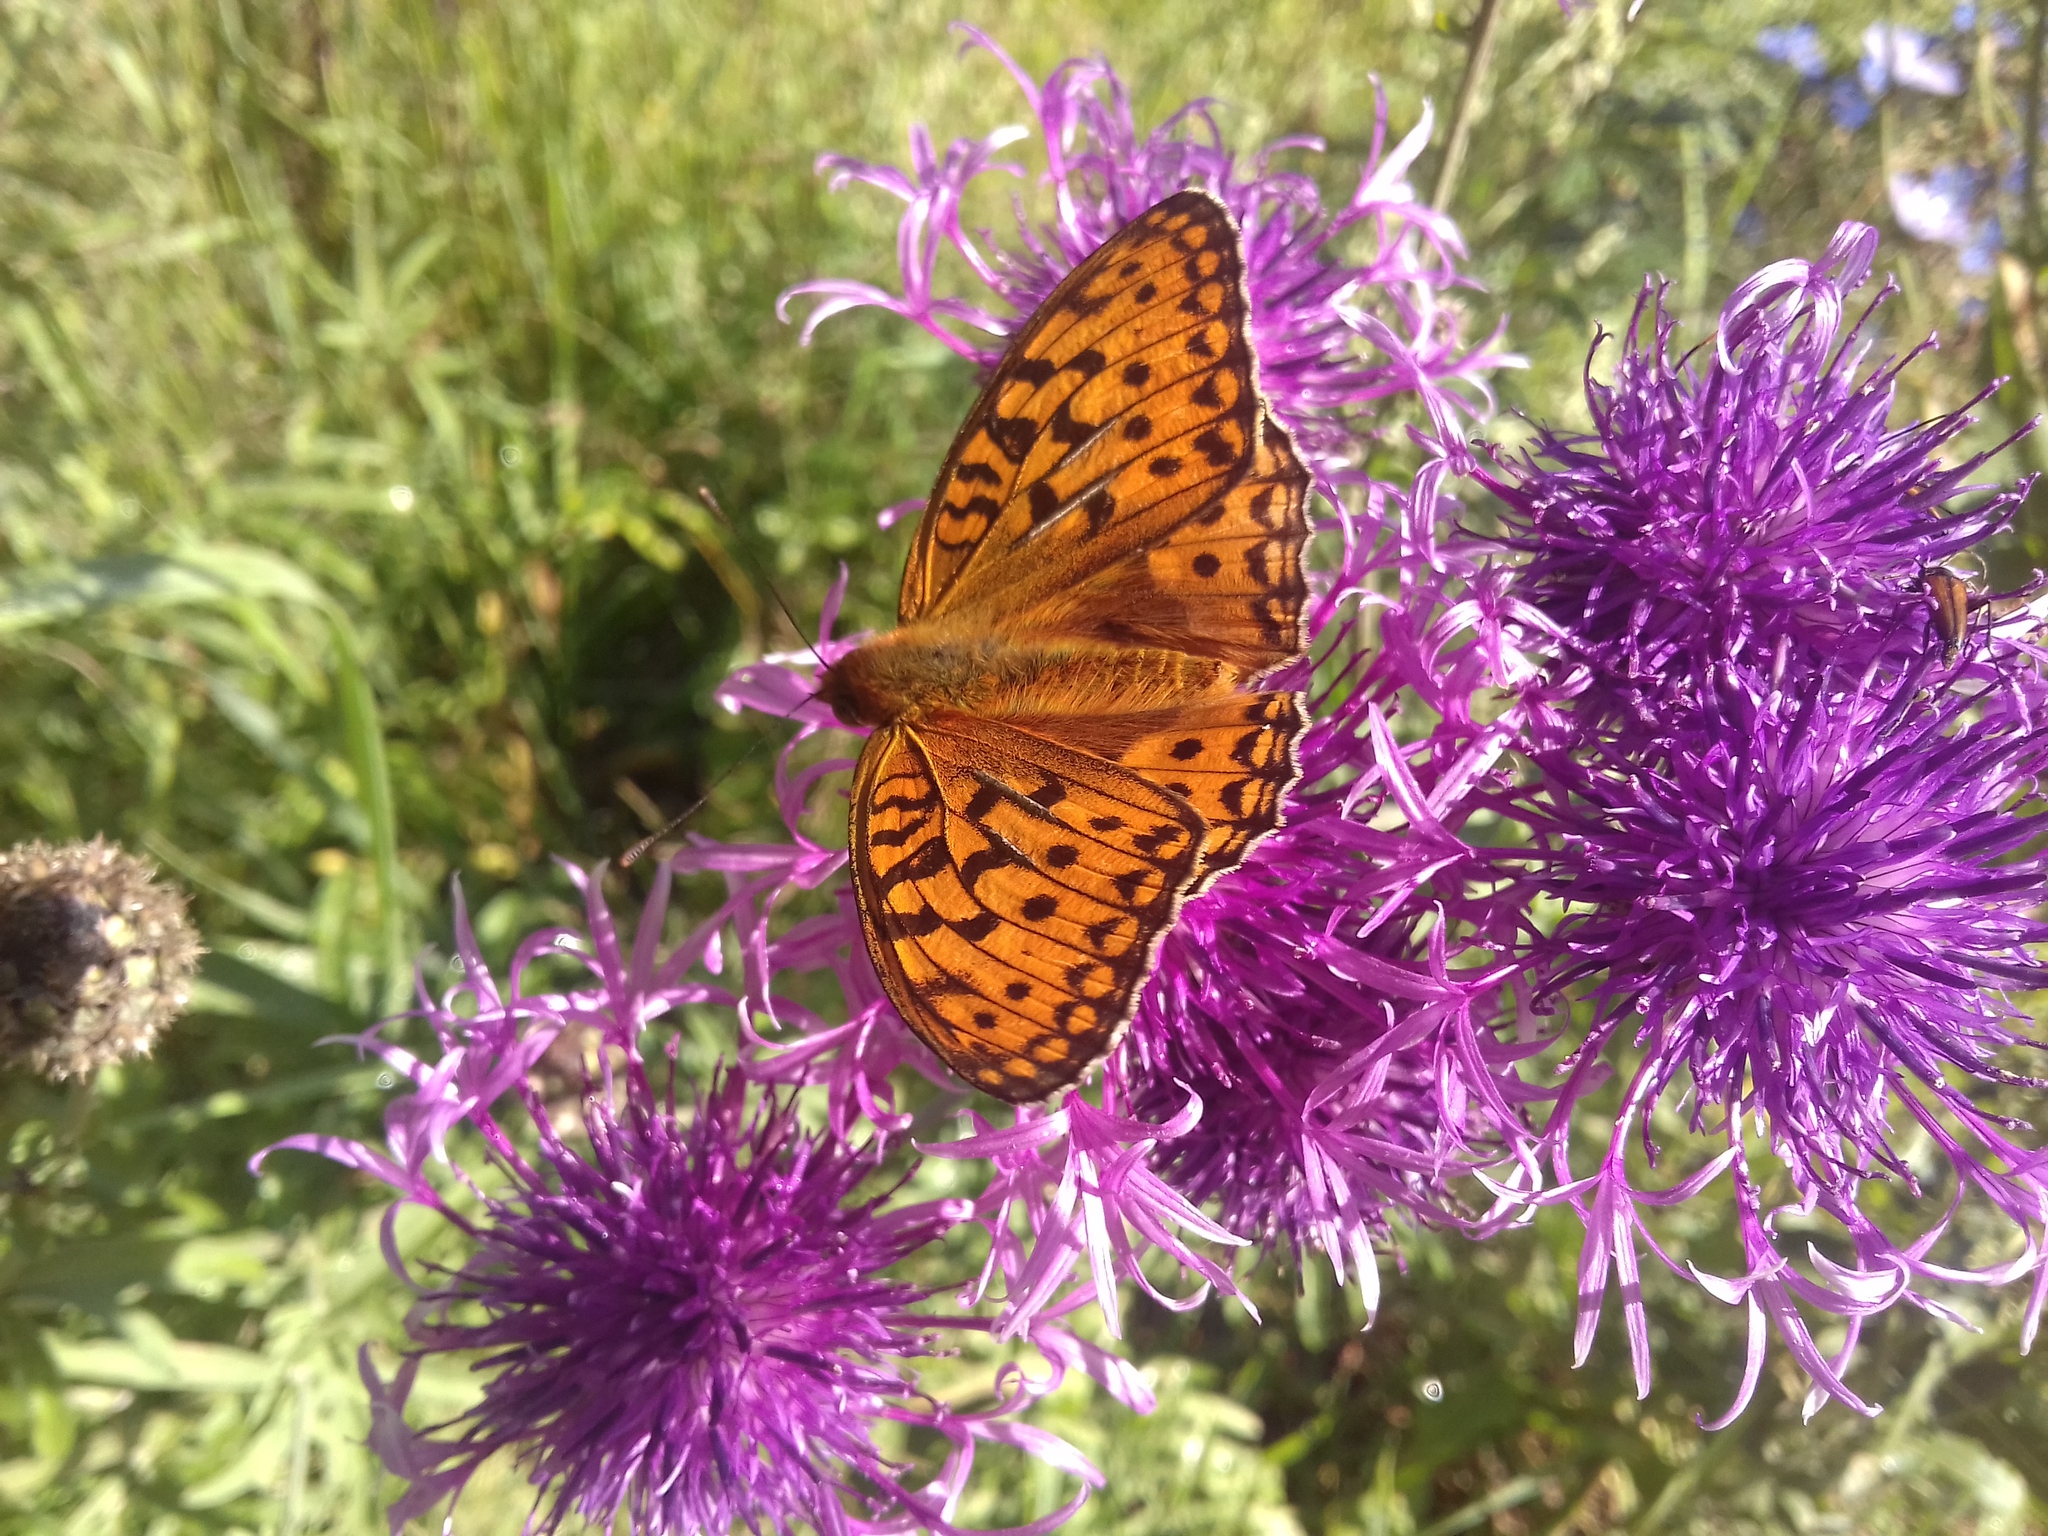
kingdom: Animalia
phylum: Arthropoda
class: Insecta
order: Lepidoptera
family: Nymphalidae
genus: Fabriciana
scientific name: Fabriciana adippe
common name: High brown fritillary
